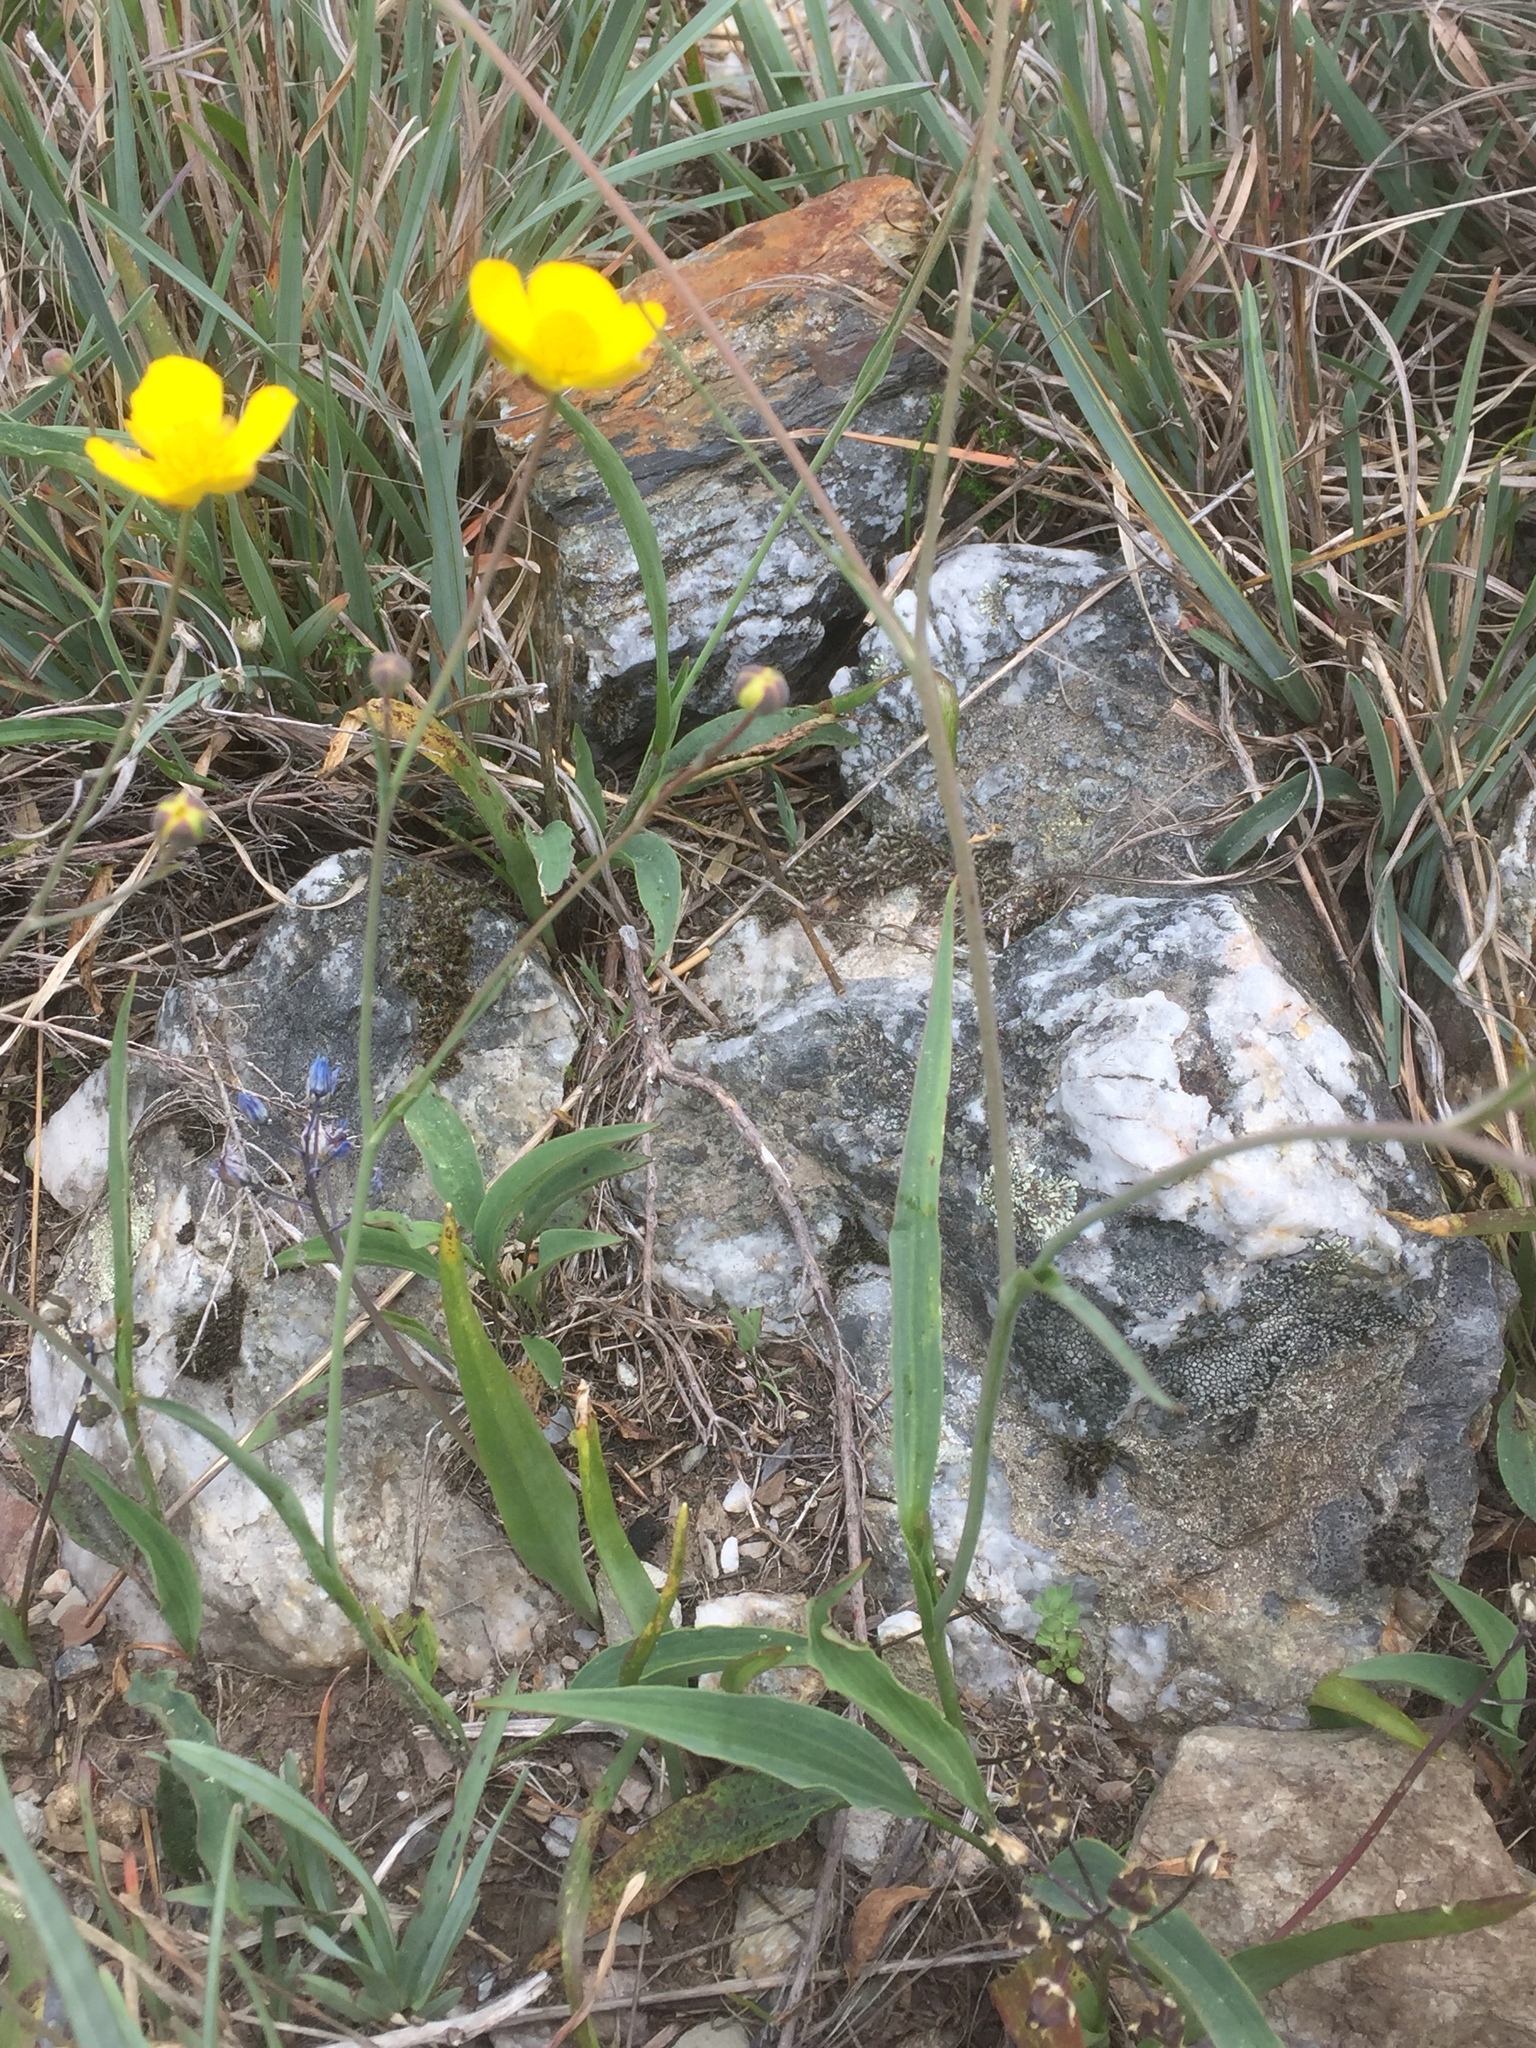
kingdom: Plantae
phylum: Tracheophyta
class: Magnoliopsida
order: Ranunculales
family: Ranunculaceae
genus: Ranunculus
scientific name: Ranunculus bupleuroides
